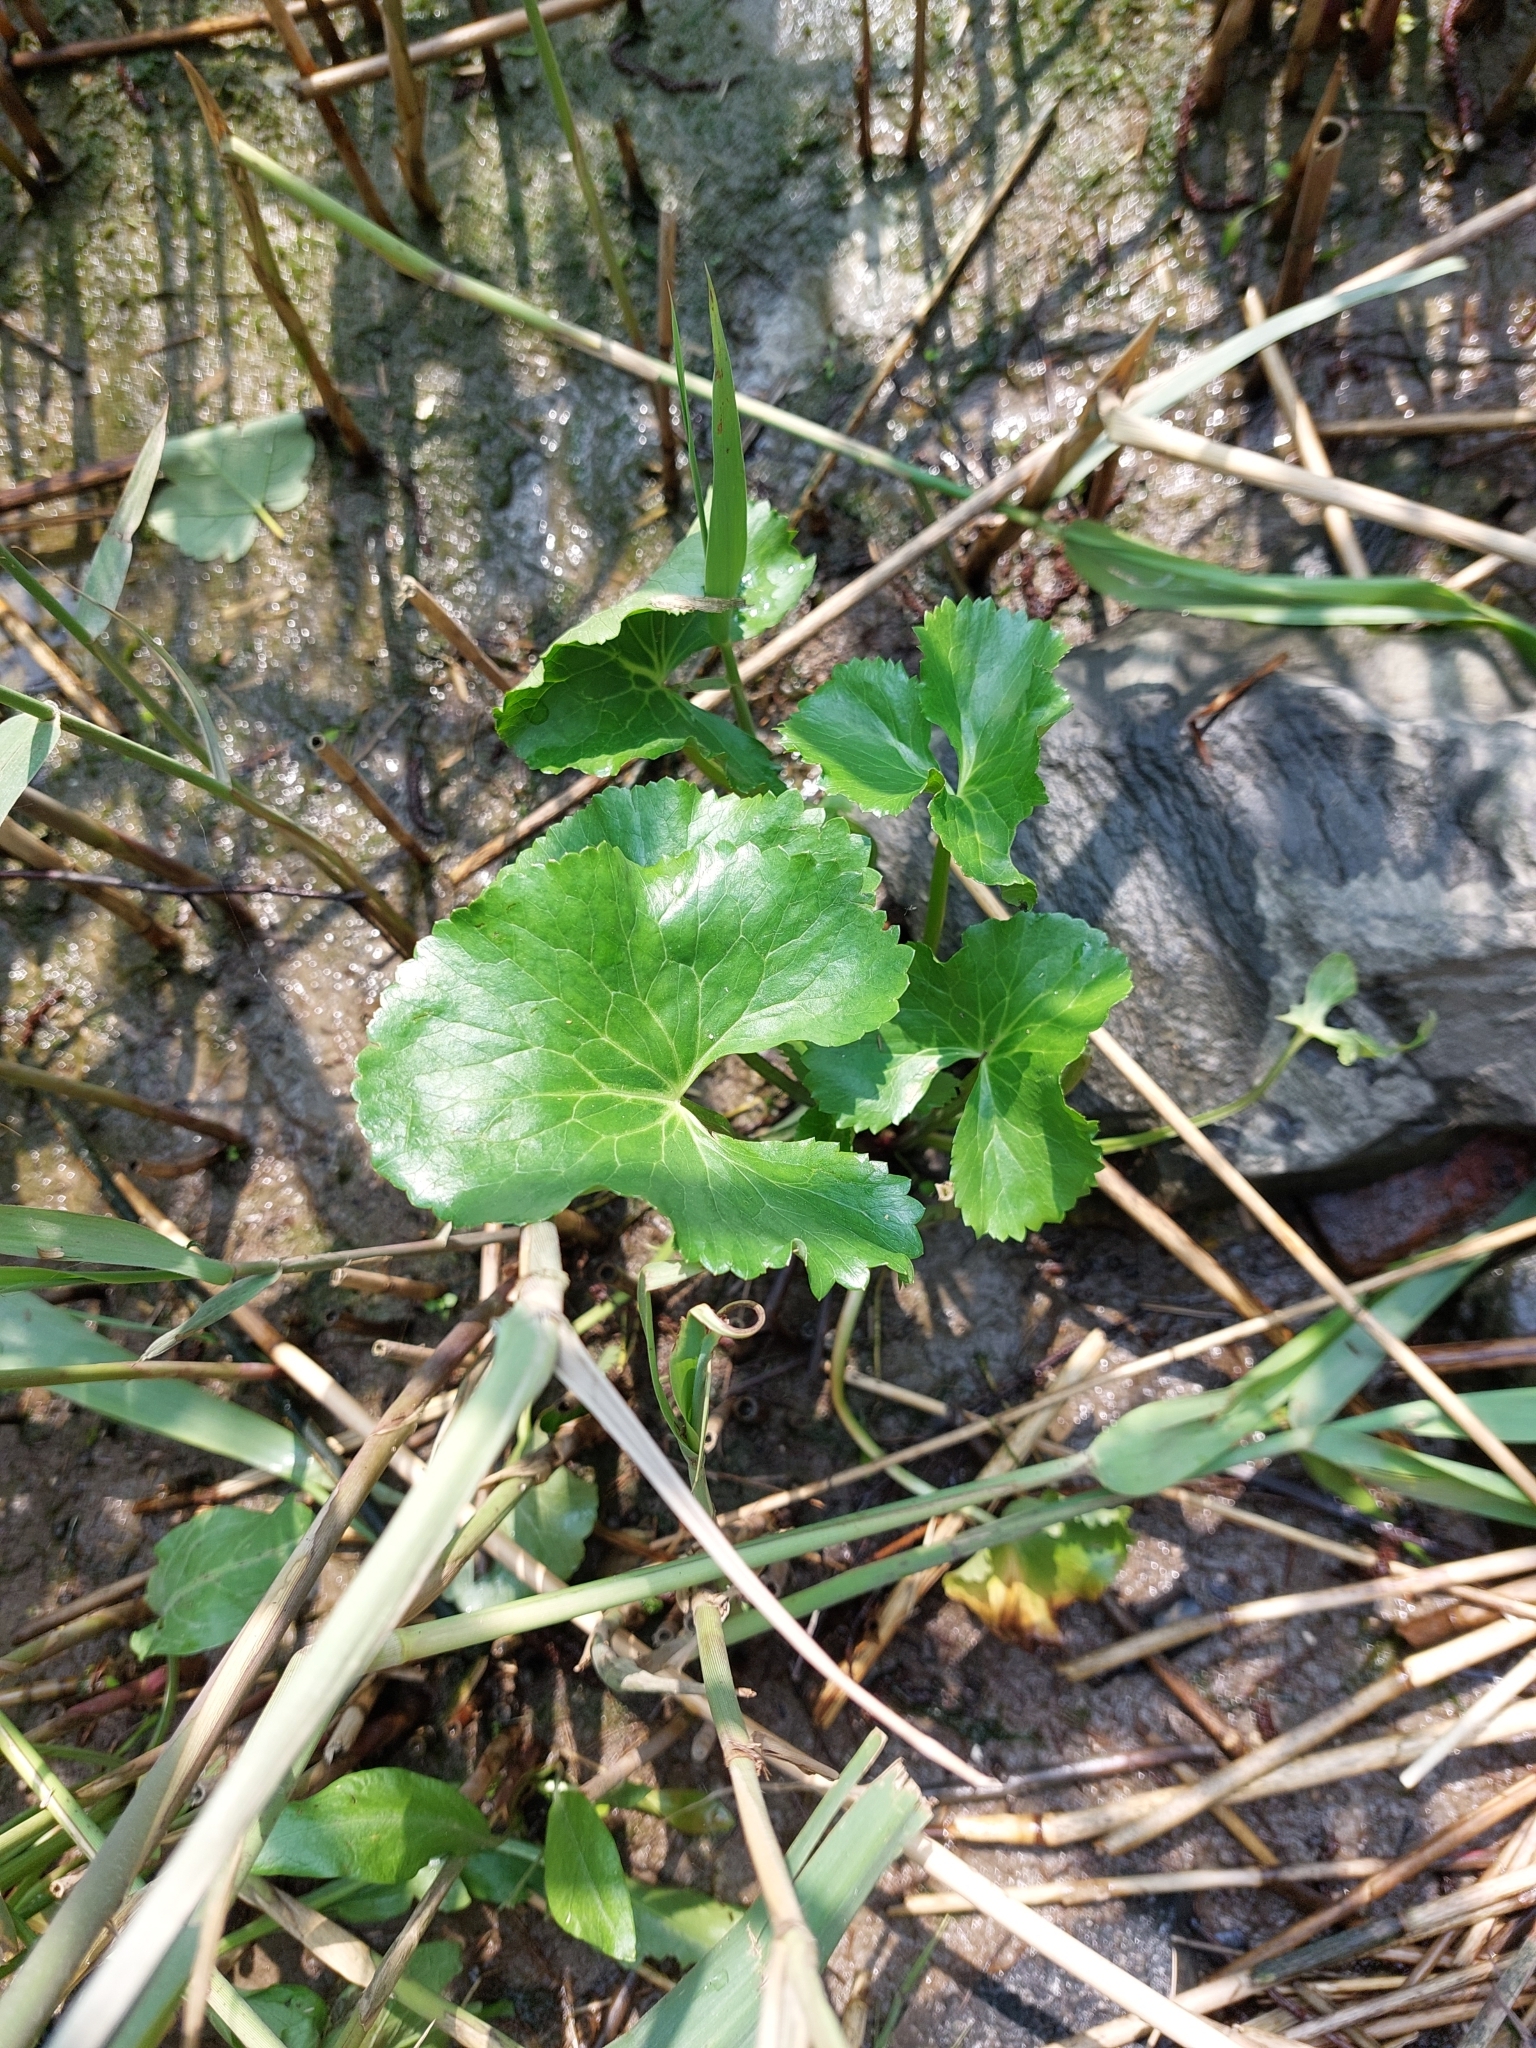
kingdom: Plantae
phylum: Tracheophyta
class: Magnoliopsida
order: Ranunculales
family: Ranunculaceae
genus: Caltha
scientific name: Caltha palustris
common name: Marsh marigold
